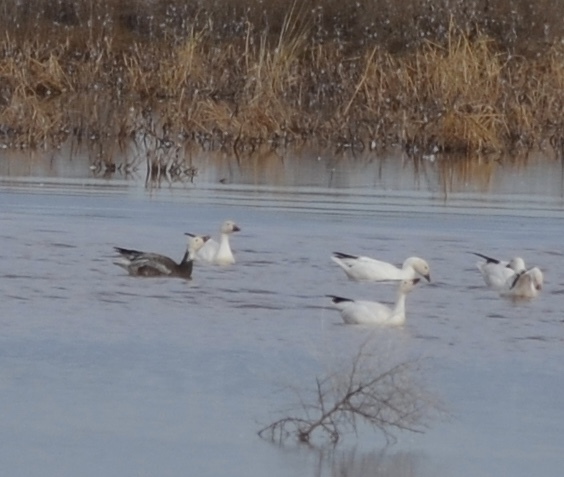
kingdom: Animalia
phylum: Chordata
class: Aves
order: Anseriformes
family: Anatidae
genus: Anser
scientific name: Anser caerulescens
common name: Snow goose
